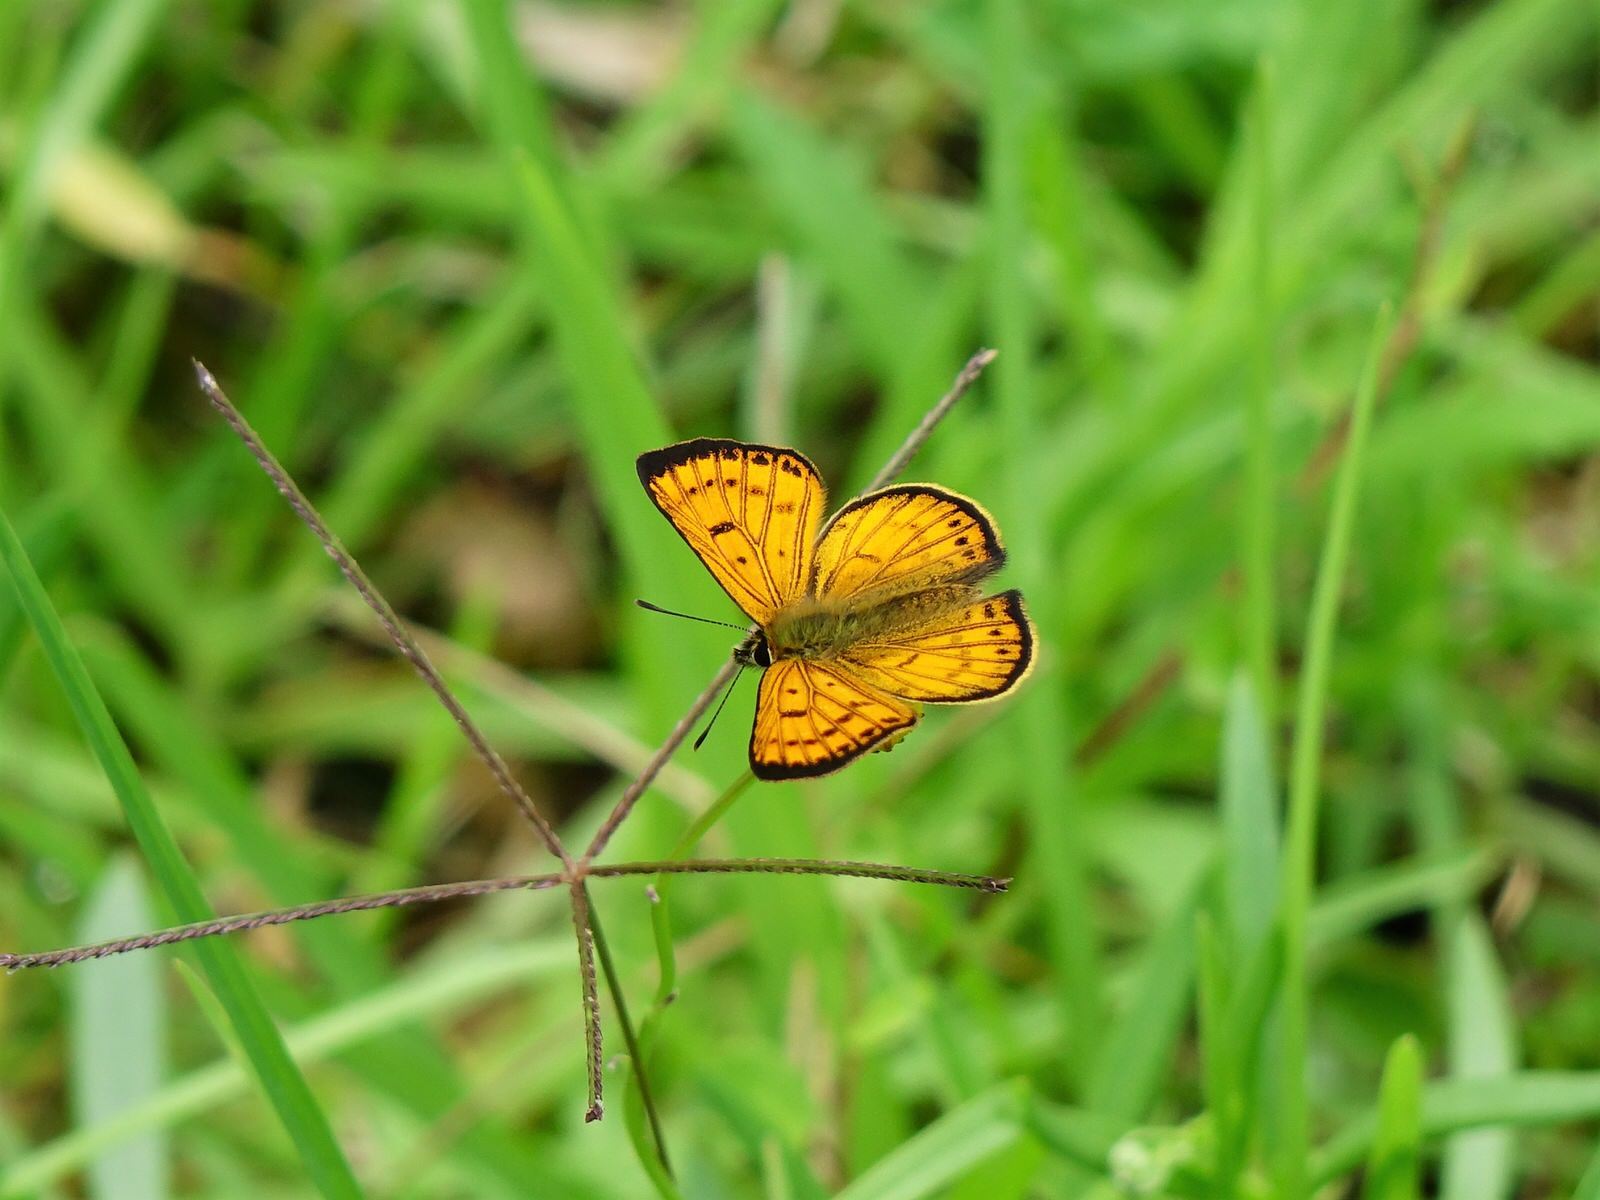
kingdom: Animalia
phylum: Arthropoda
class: Insecta
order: Lepidoptera
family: Lycaenidae
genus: Lycaena
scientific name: Lycaena salustius
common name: North island coastal copper
